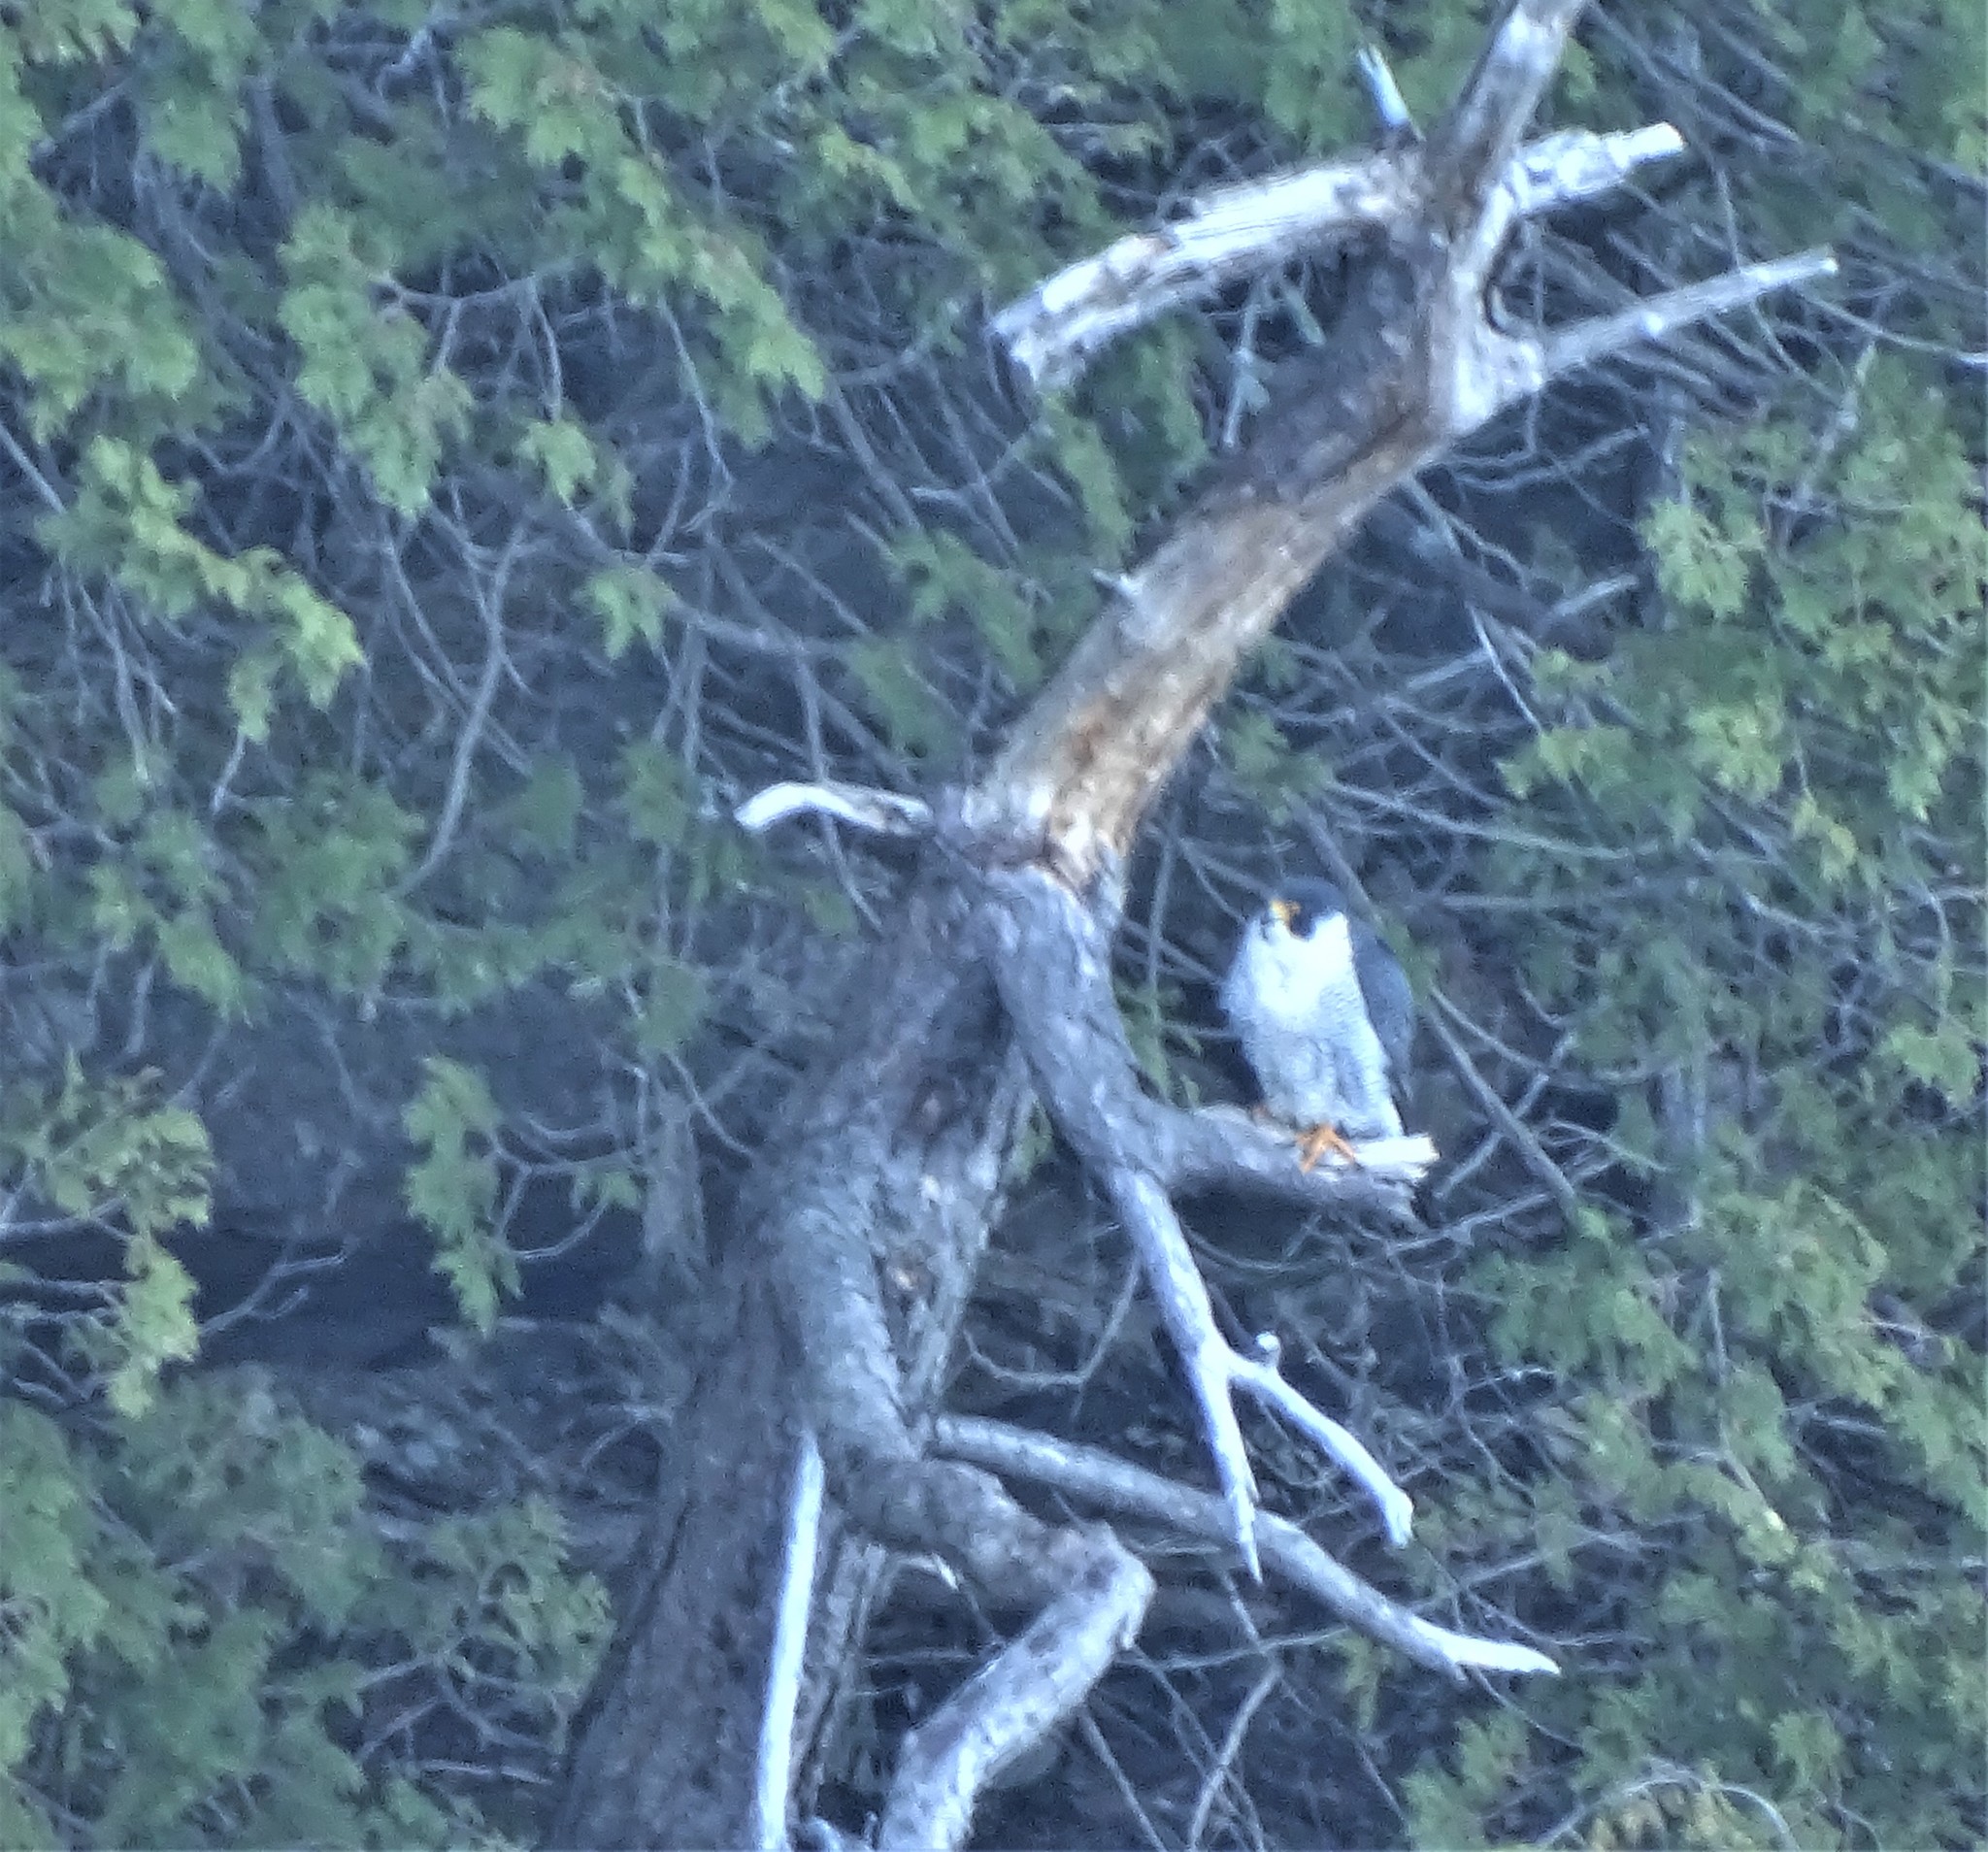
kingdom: Animalia
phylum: Chordata
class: Aves
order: Falconiformes
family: Falconidae
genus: Falco
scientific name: Falco peregrinus
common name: Peregrine falcon
